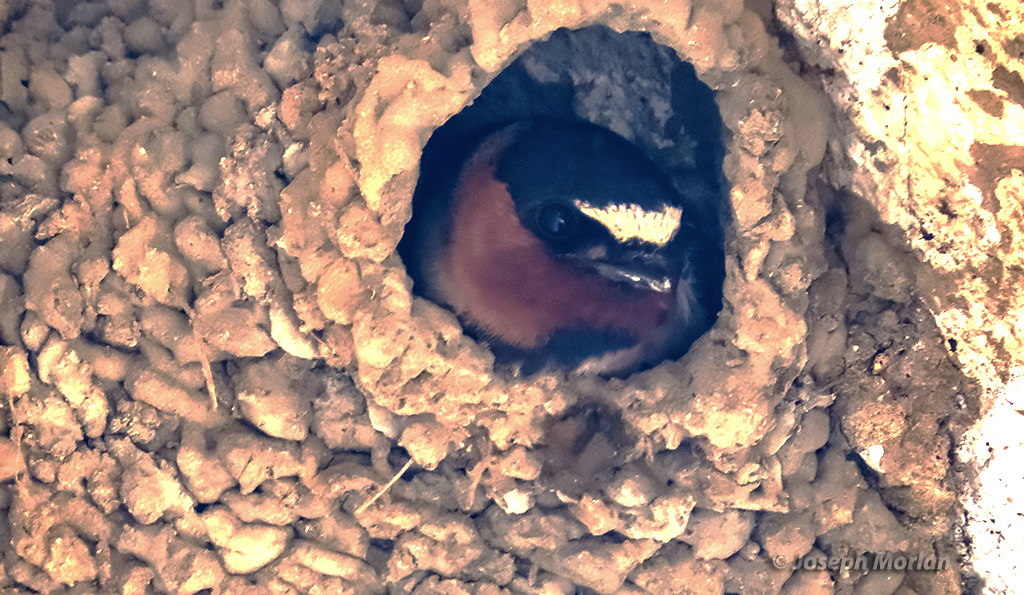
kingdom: Animalia
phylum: Chordata
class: Aves
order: Passeriformes
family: Hirundinidae
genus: Petrochelidon
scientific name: Petrochelidon pyrrhonota
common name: American cliff swallow
